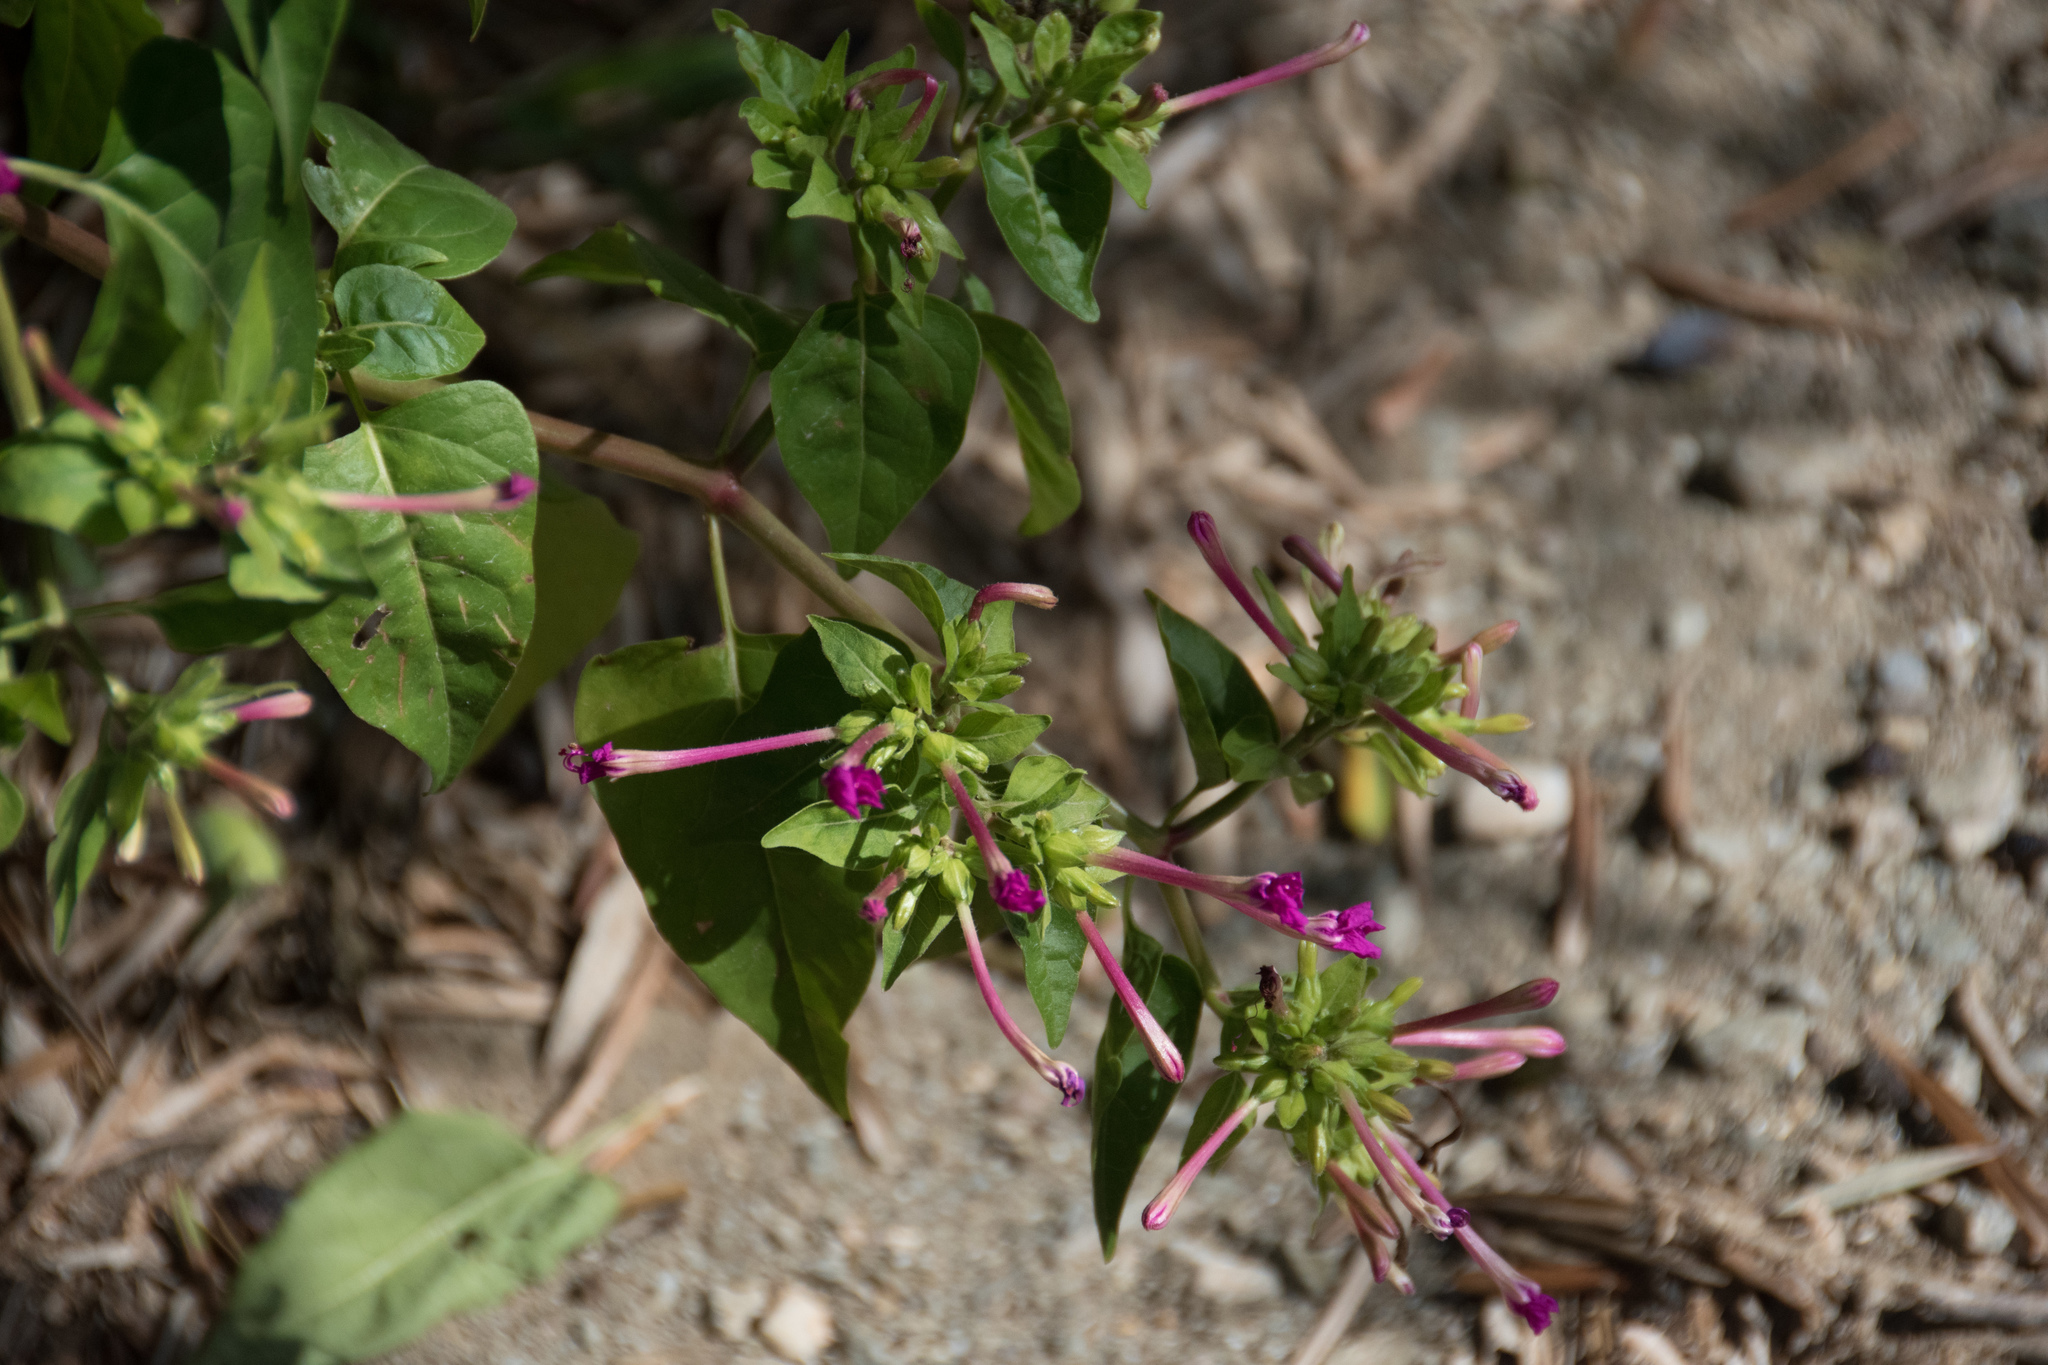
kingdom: Plantae
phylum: Tracheophyta
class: Magnoliopsida
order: Caryophyllales
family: Nyctaginaceae
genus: Mirabilis
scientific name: Mirabilis jalapa
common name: Marvel-of-peru
